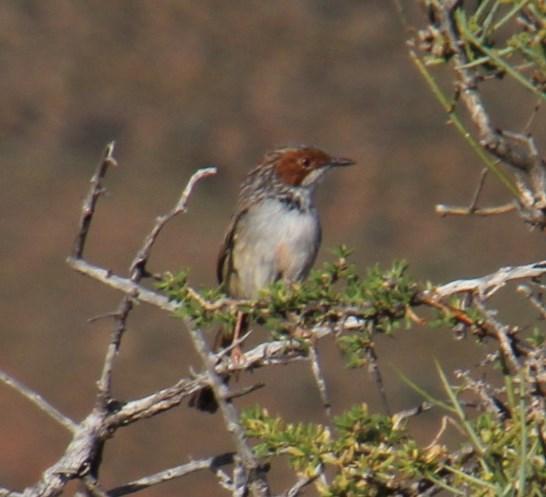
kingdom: Animalia
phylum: Chordata
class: Aves
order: Passeriformes
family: Cisticolidae
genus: Malcorus
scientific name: Malcorus pectoralis
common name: Rufous-eared warbler
